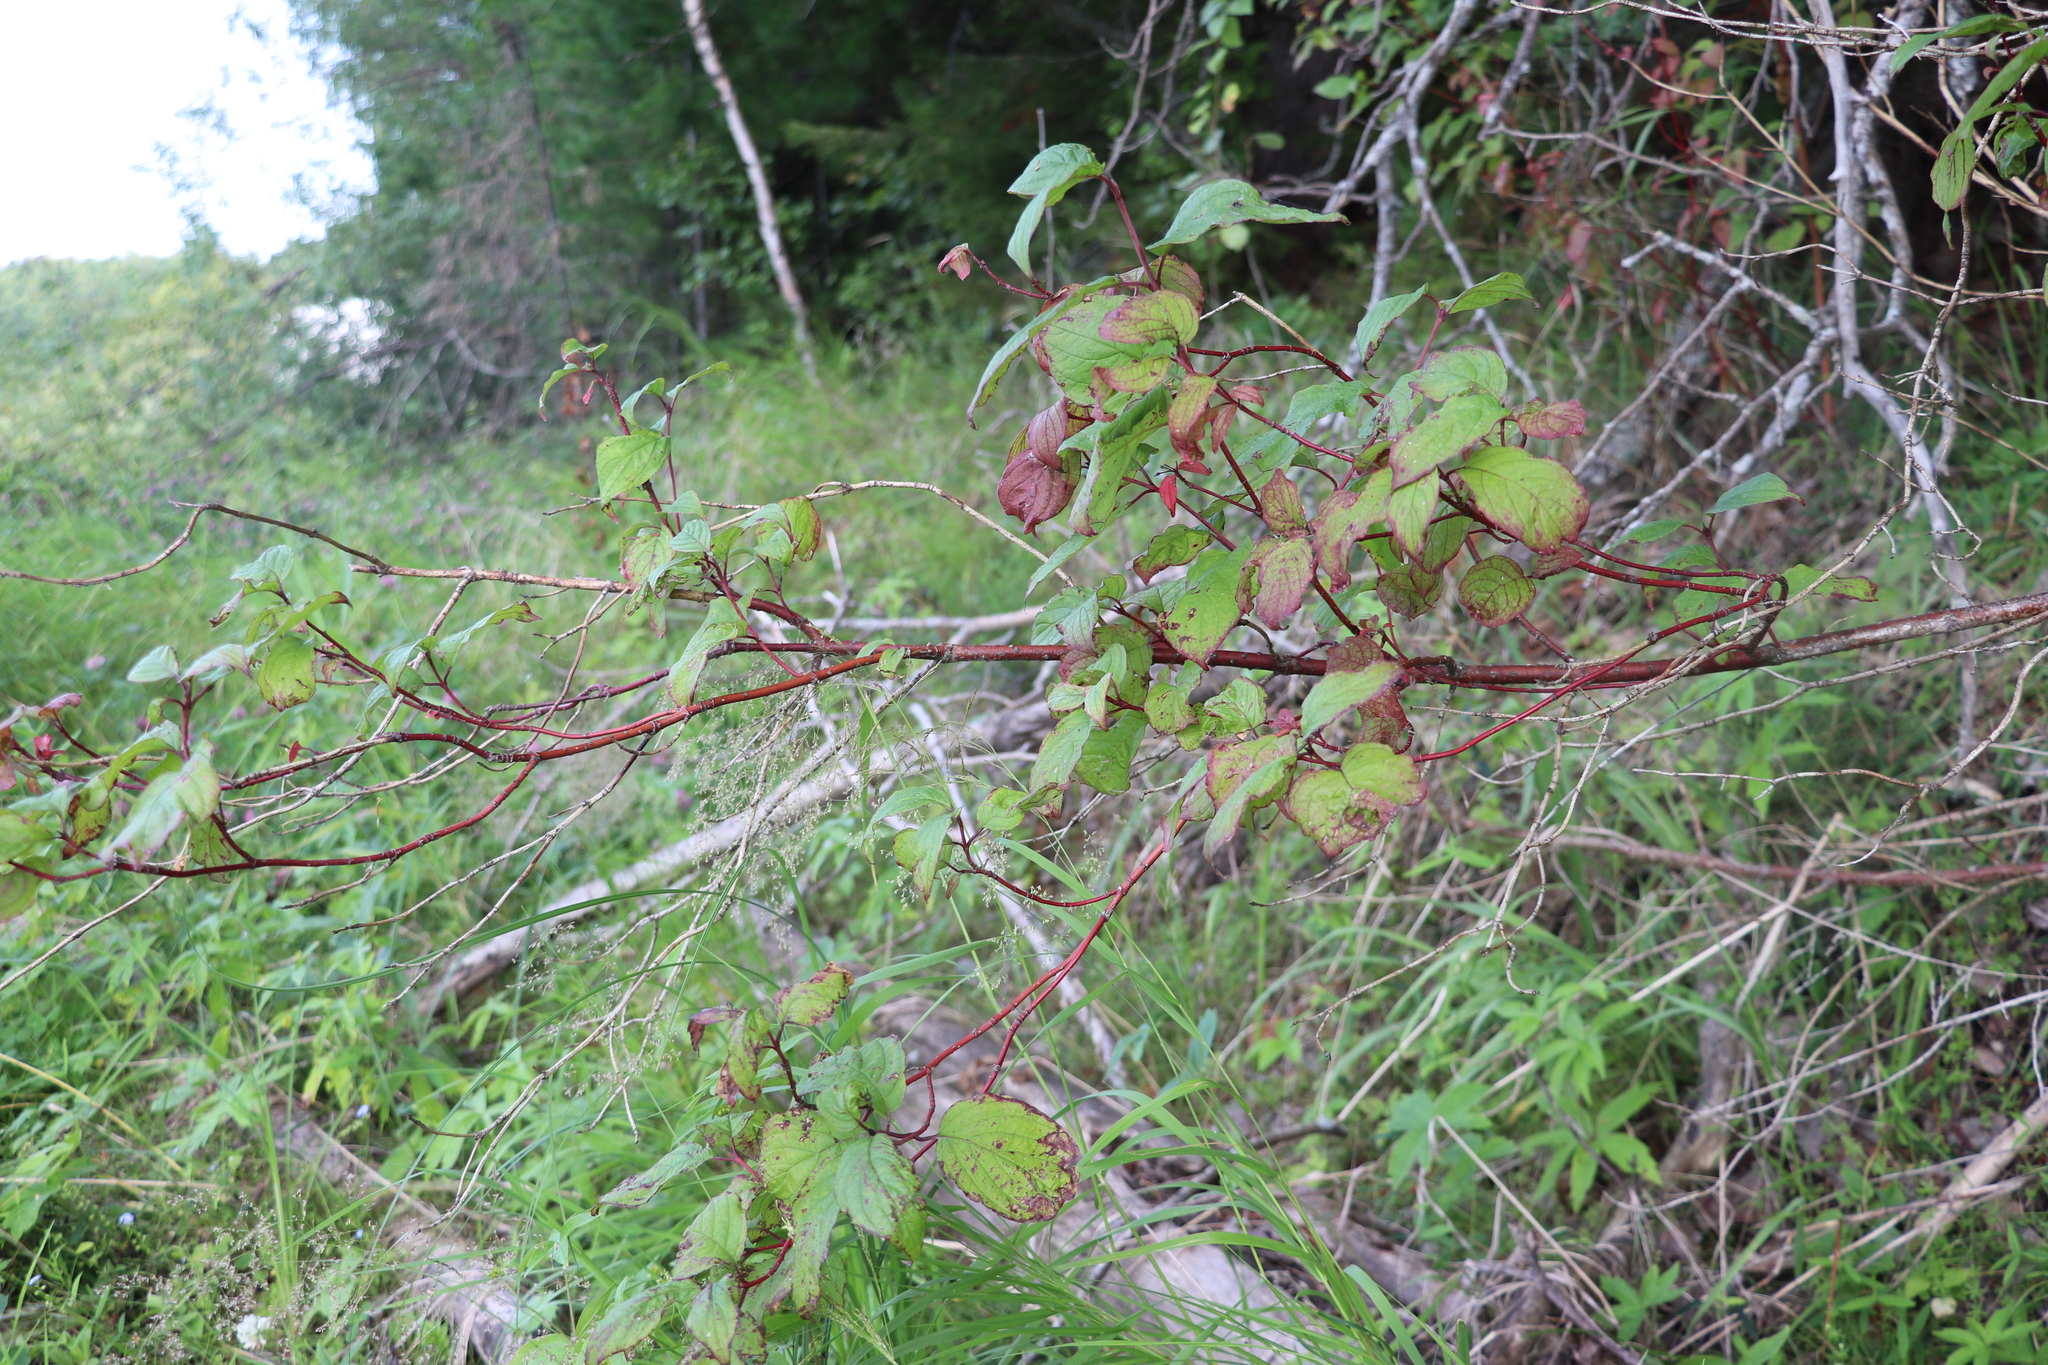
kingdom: Plantae
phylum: Tracheophyta
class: Magnoliopsida
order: Cornales
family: Cornaceae
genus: Cornus
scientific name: Cornus alba
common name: White dogwood
